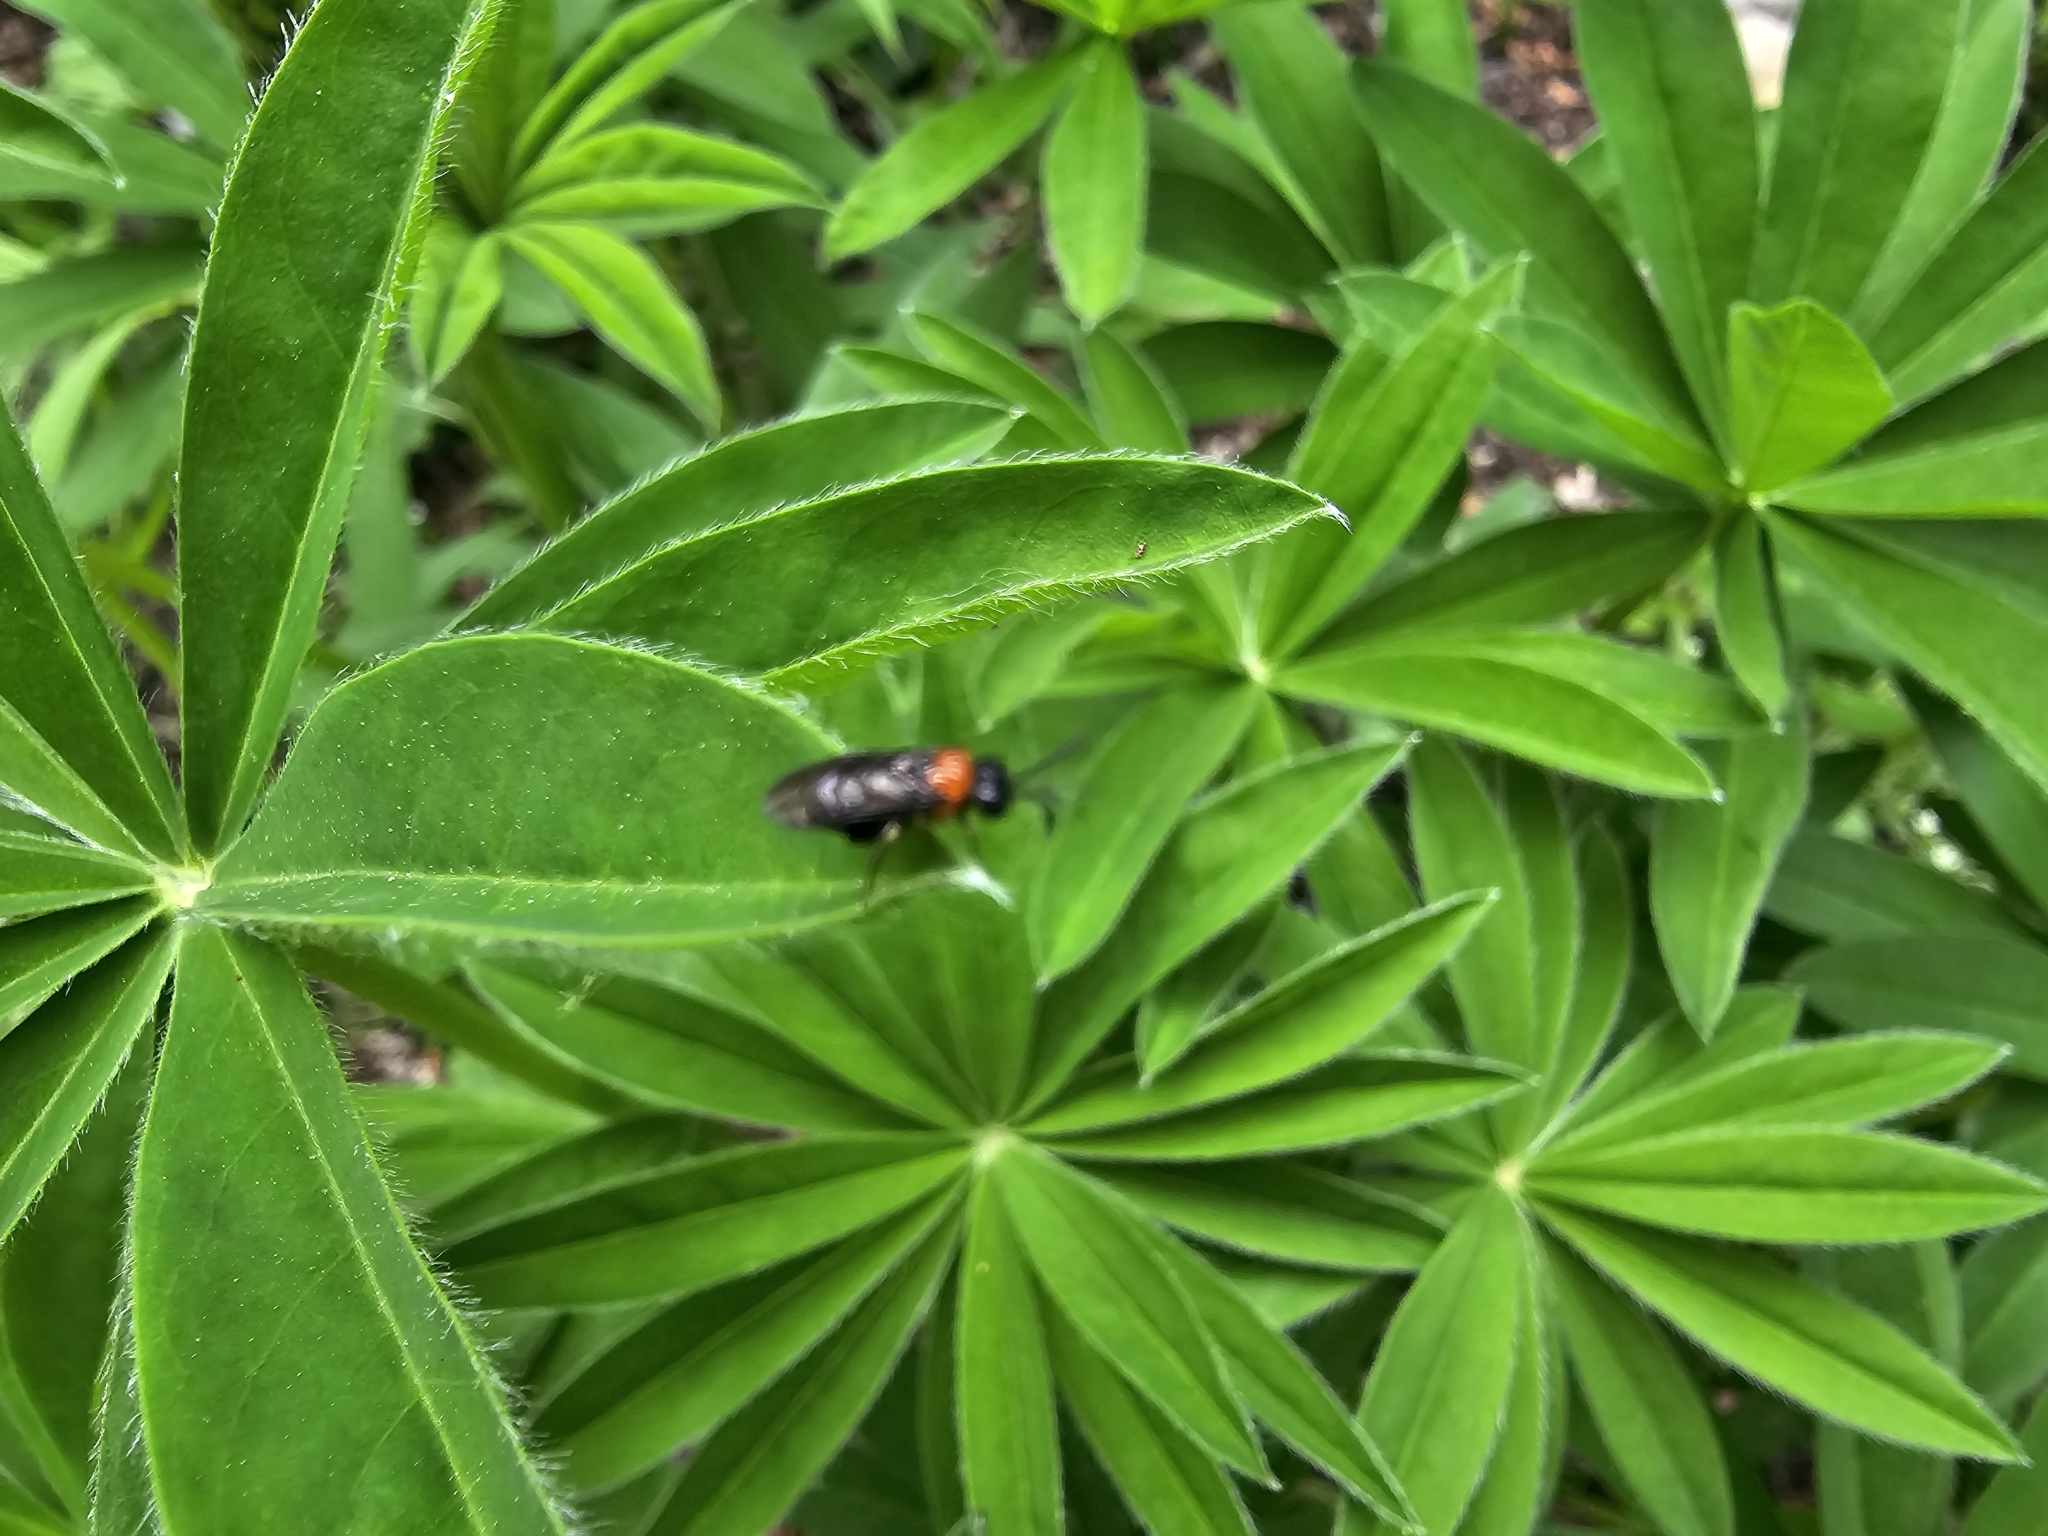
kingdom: Animalia
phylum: Arthropoda
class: Insecta
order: Coleoptera
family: Chrysomelidae
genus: Lilioceris
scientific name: Lilioceris lilii
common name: Lily beetle
